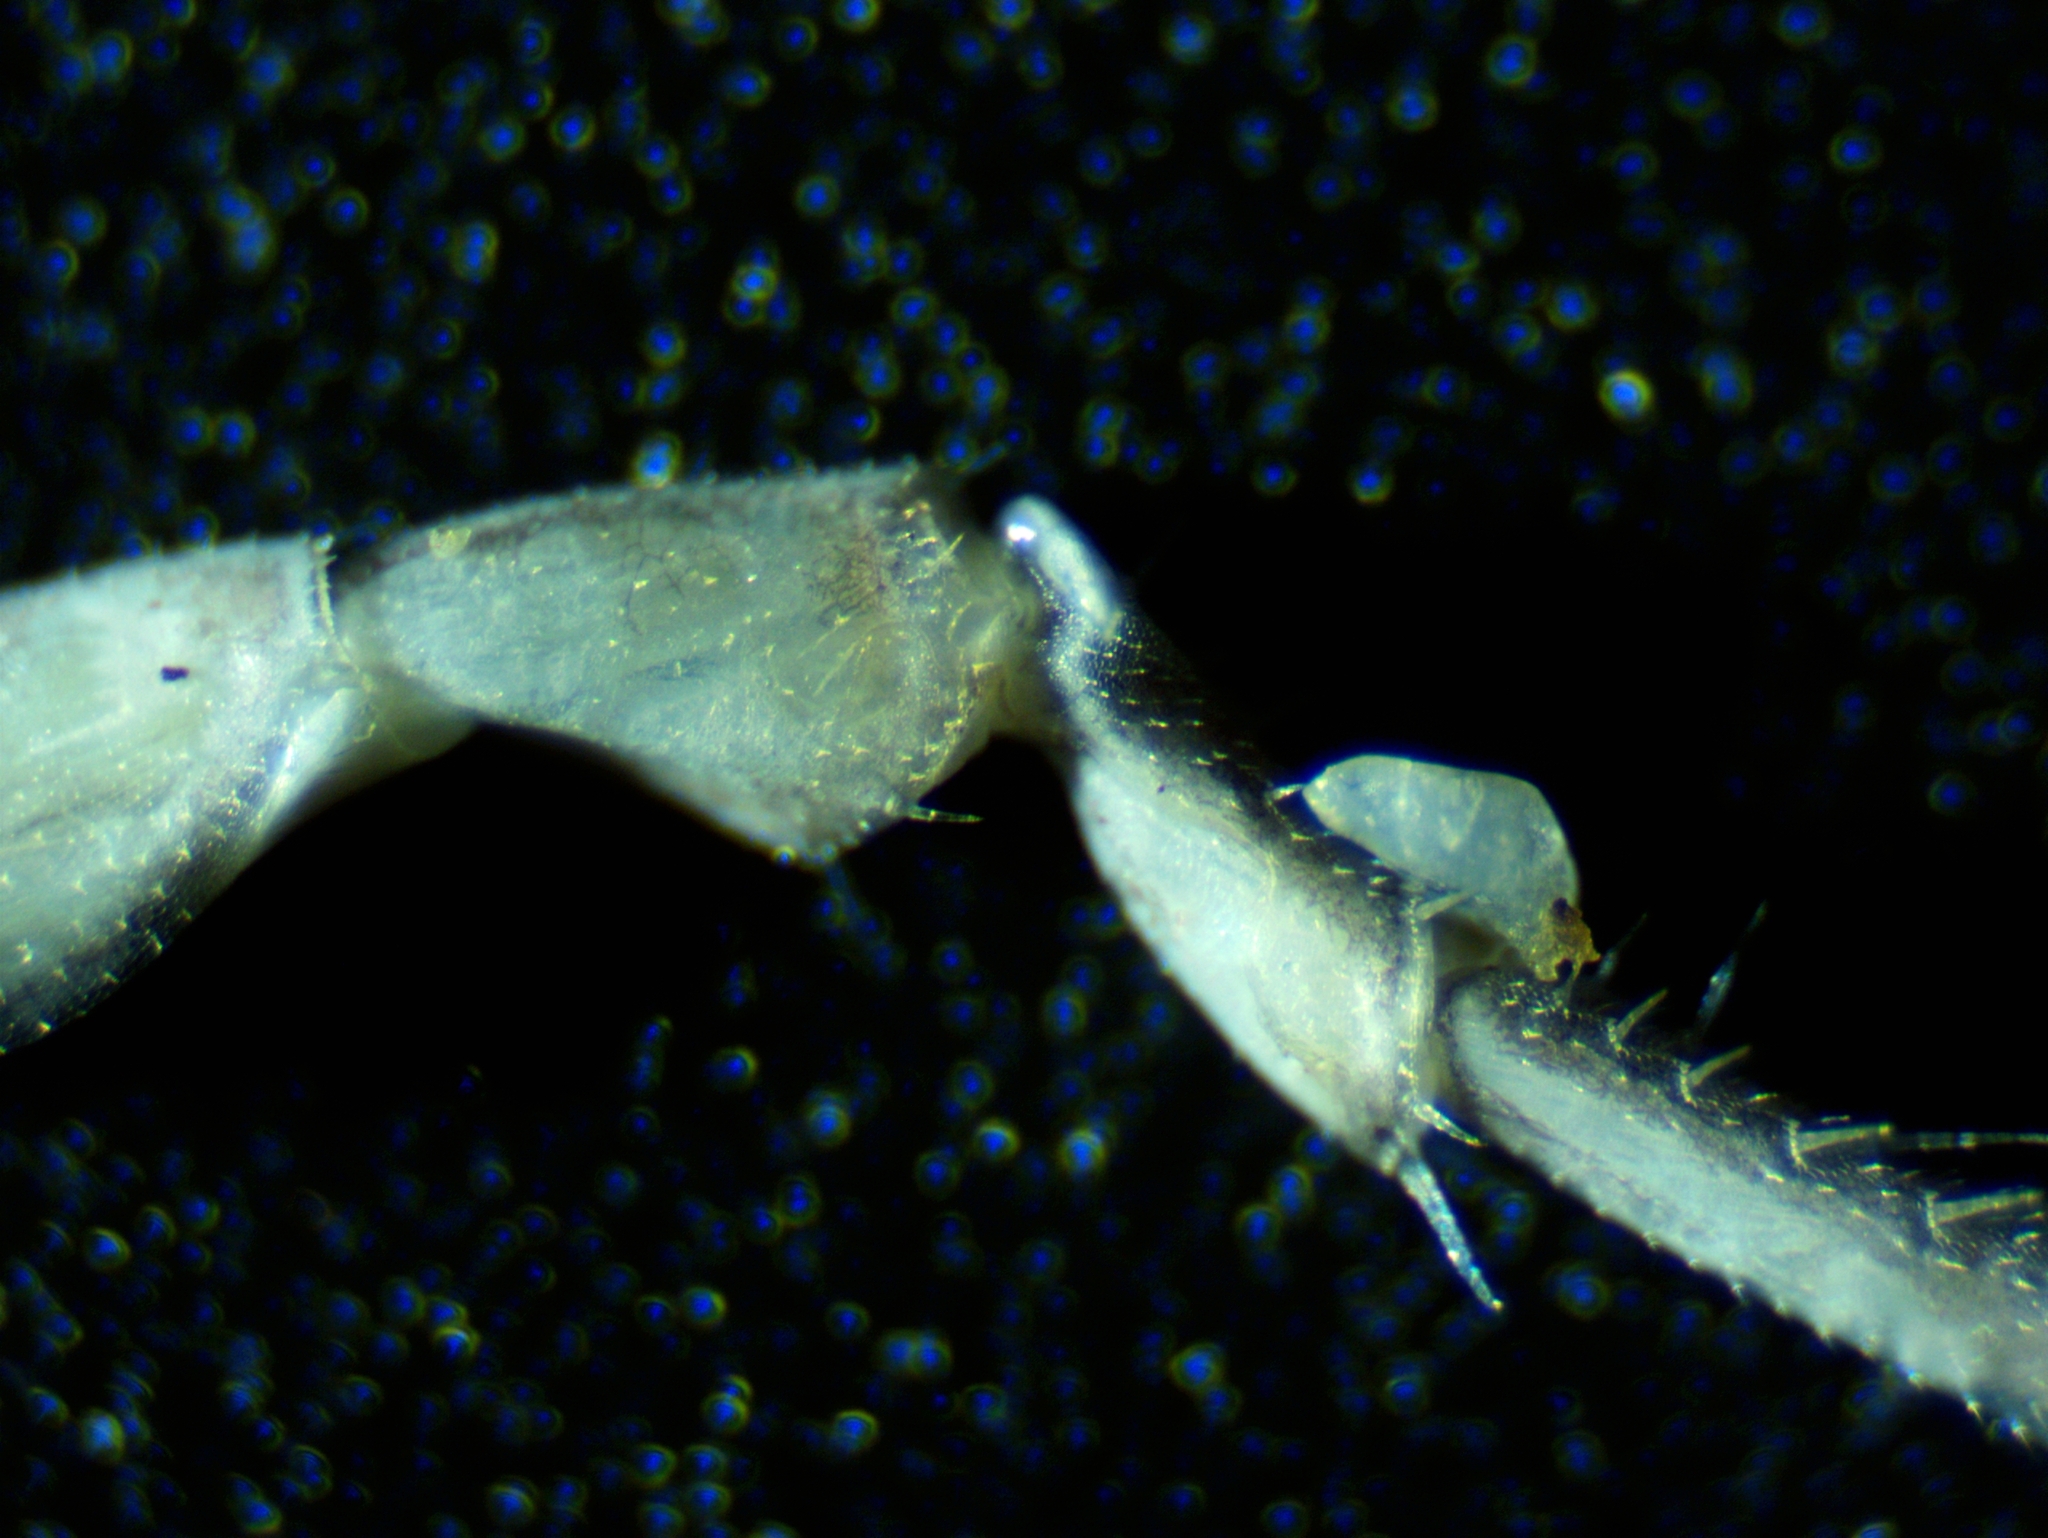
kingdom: Animalia
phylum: Arthropoda
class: Malacostraca
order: Isopoda
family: Philosciidae
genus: Philoscia
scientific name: Philoscia muscorum
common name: Common striped woodlouse
